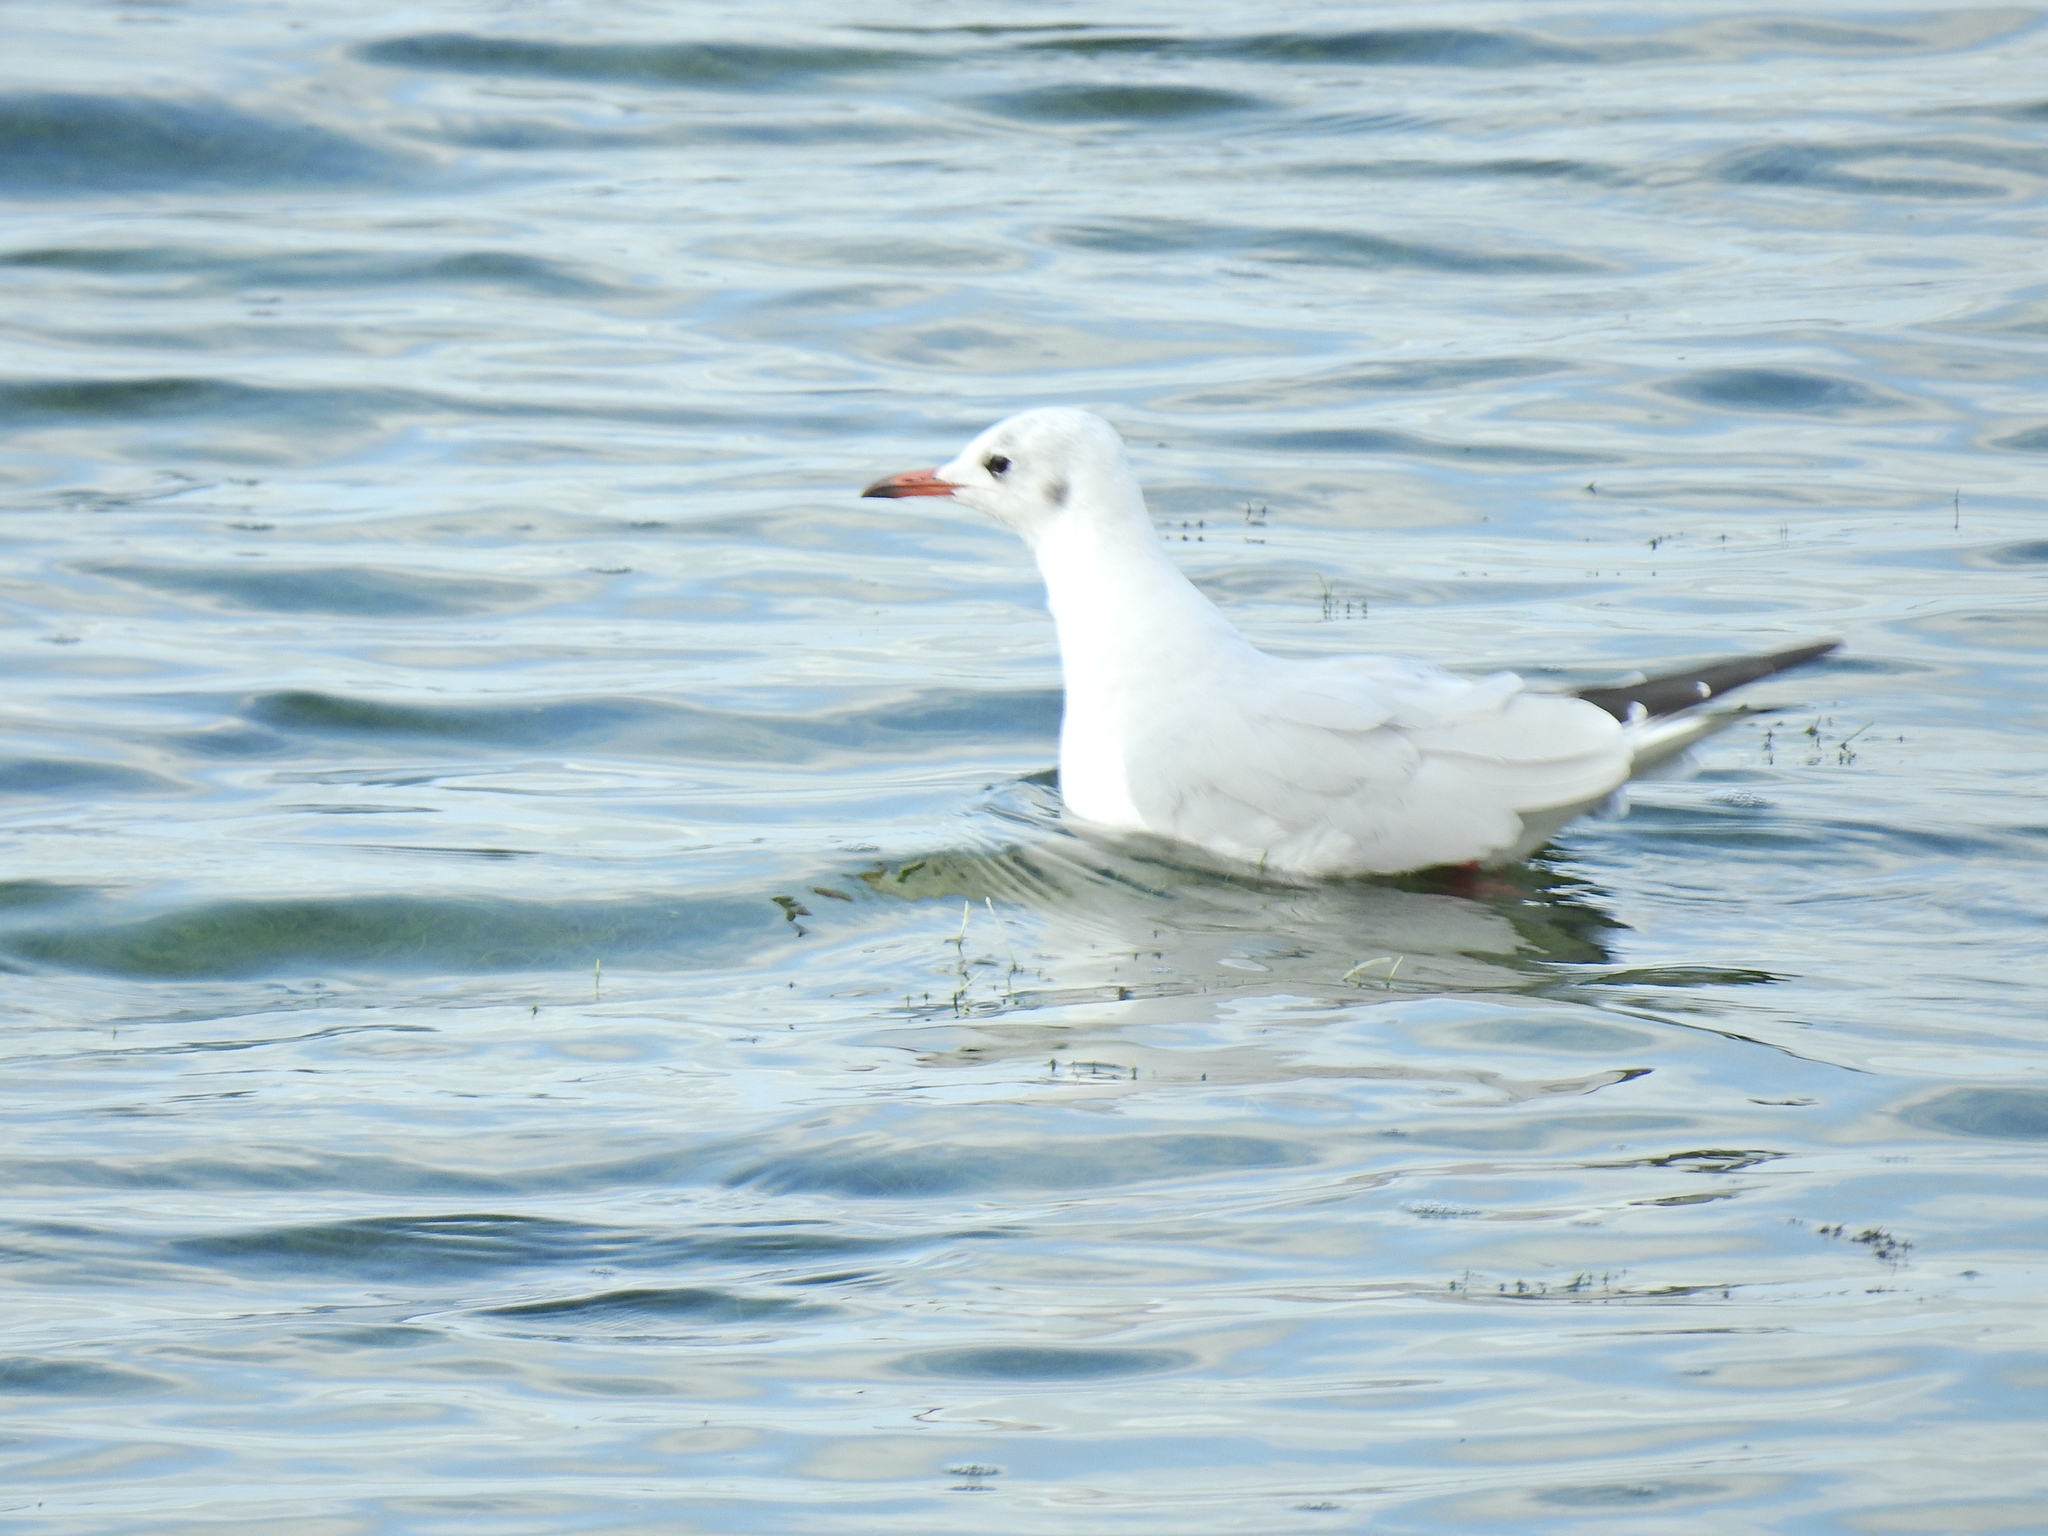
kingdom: Animalia
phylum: Chordata
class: Aves
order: Charadriiformes
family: Laridae
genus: Chroicocephalus
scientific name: Chroicocephalus ridibundus
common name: Black-headed gull
